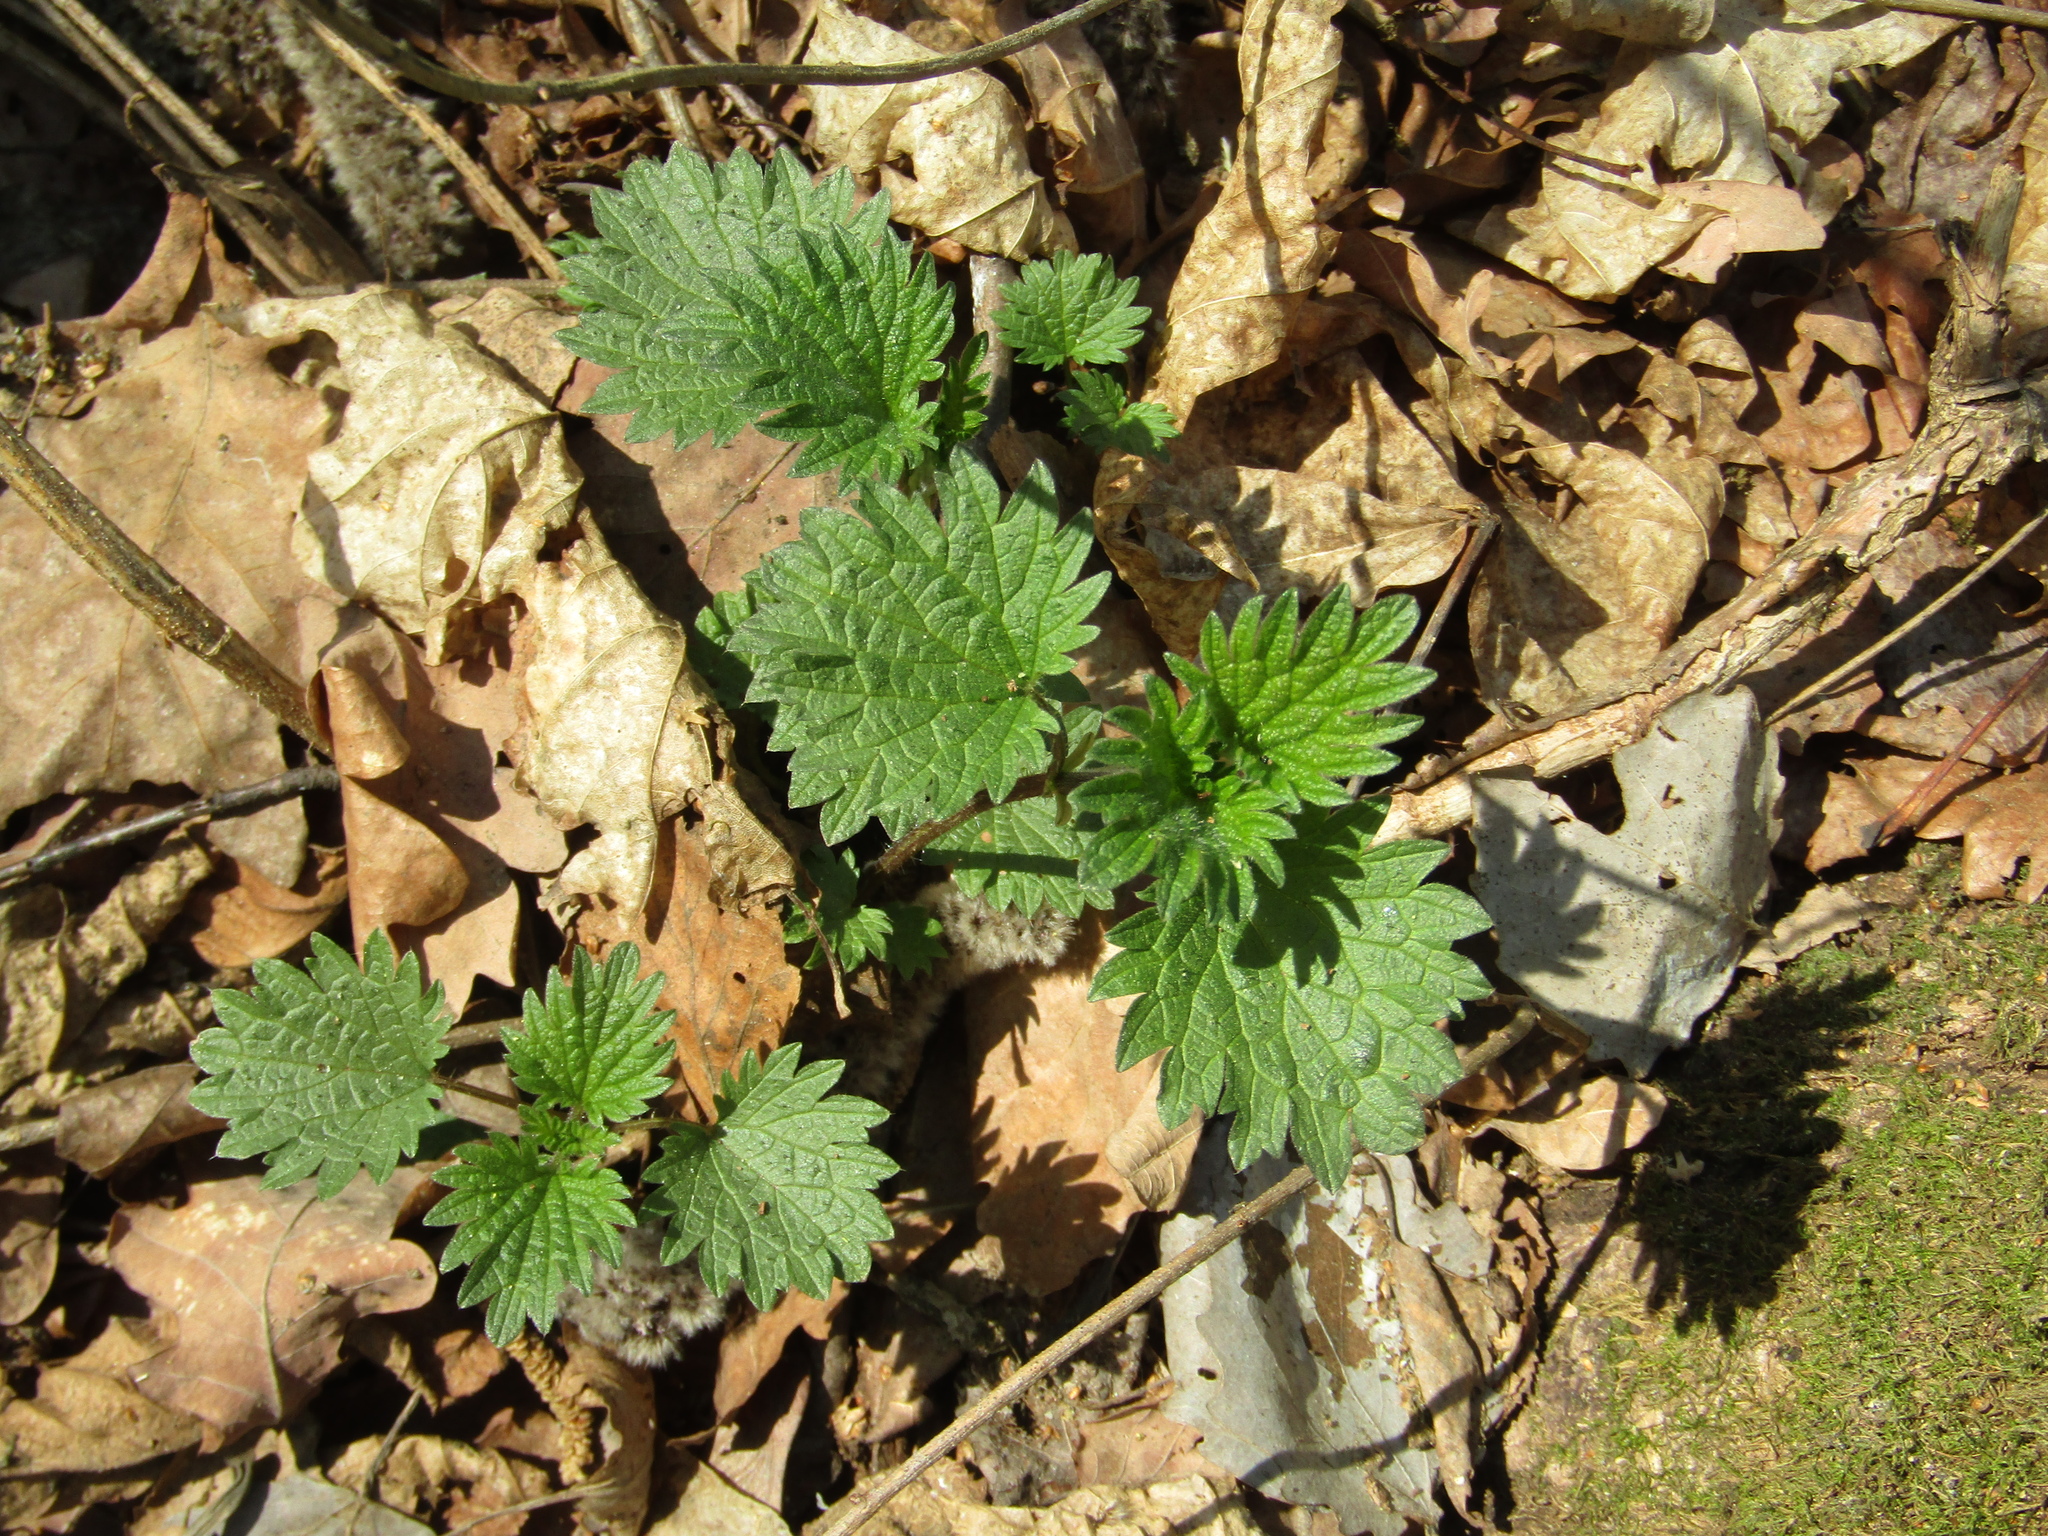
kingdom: Plantae
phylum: Tracheophyta
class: Magnoliopsida
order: Rosales
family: Urticaceae
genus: Urtica
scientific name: Urtica dioica
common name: Common nettle
